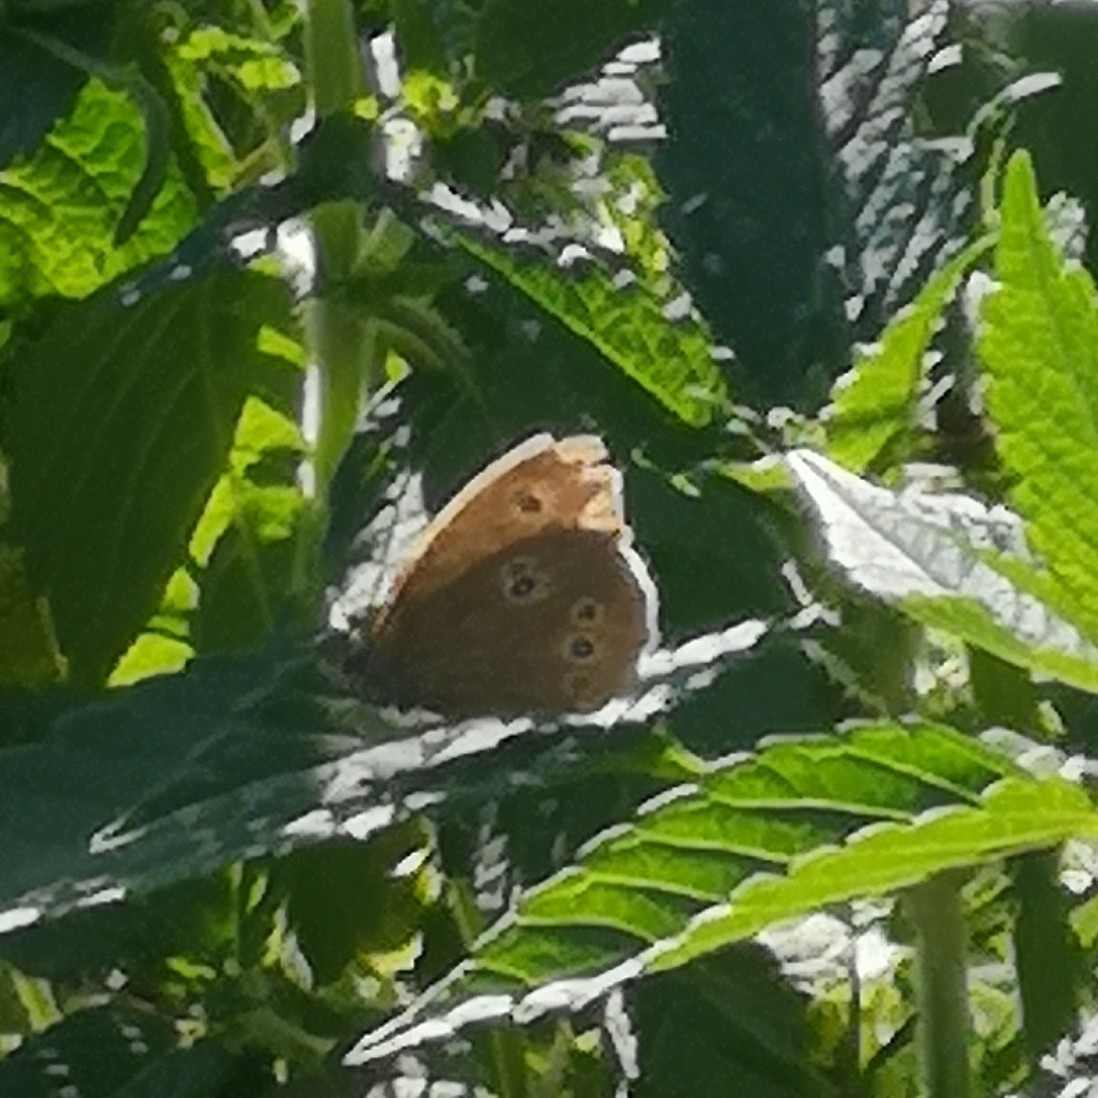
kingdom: Animalia
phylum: Arthropoda
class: Insecta
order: Lepidoptera
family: Nymphalidae
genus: Aphantopus
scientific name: Aphantopus hyperantus
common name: Ringlet
